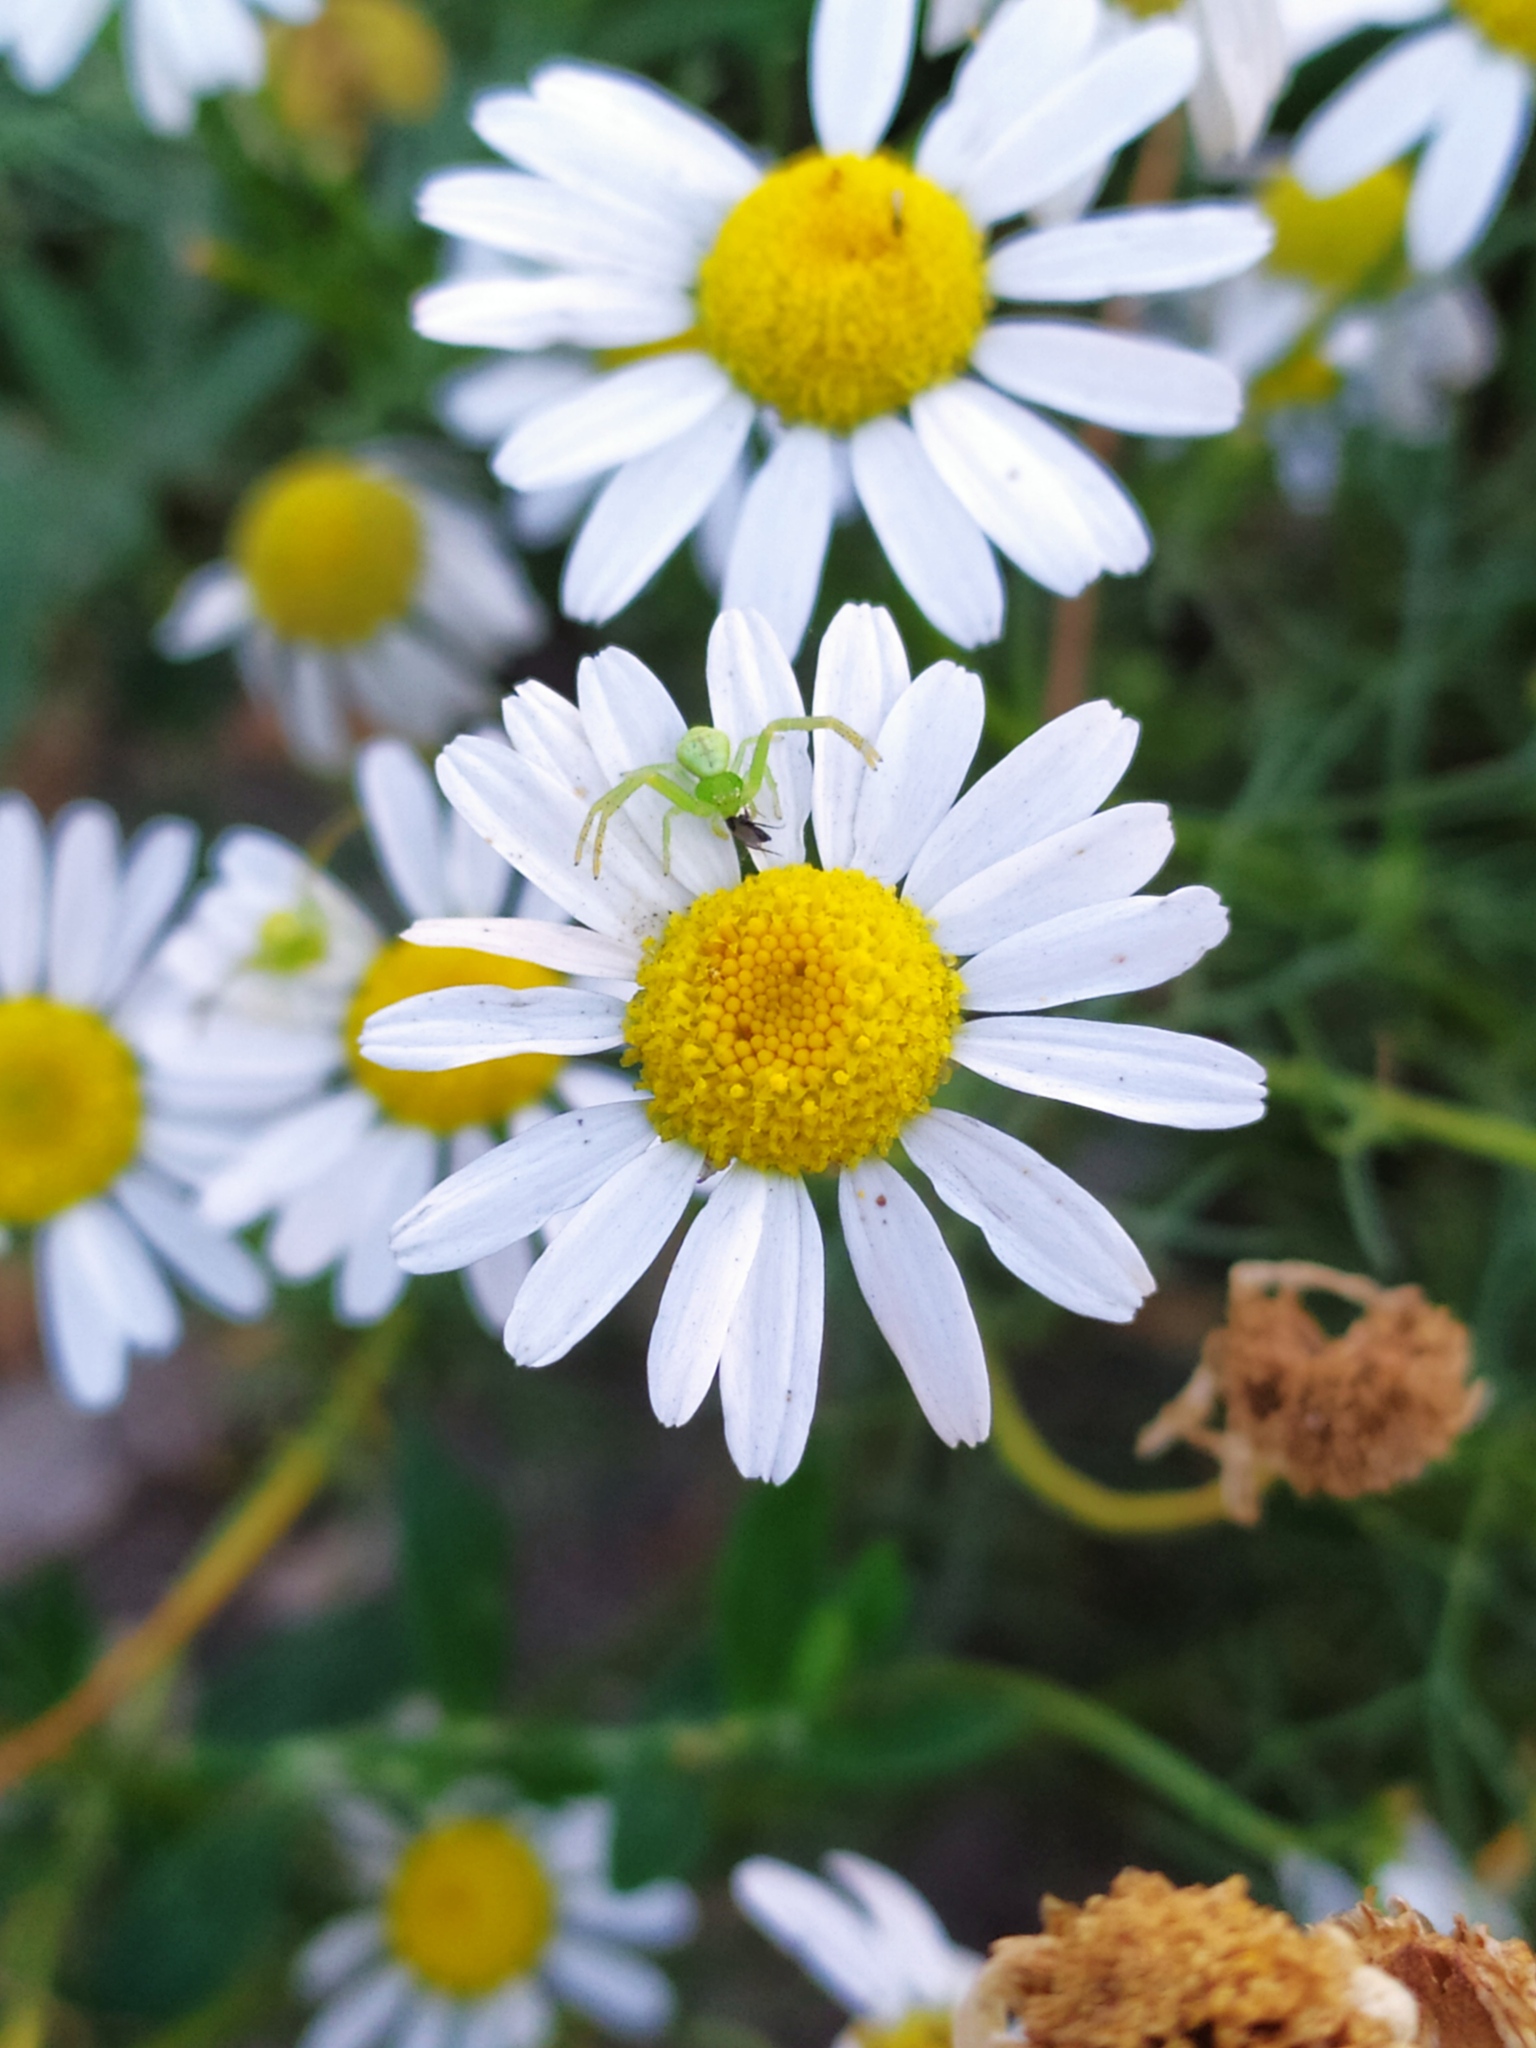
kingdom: Animalia
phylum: Arthropoda
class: Arachnida
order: Araneae
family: Thomisidae
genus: Ebrechtella
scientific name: Ebrechtella tricuspidata
